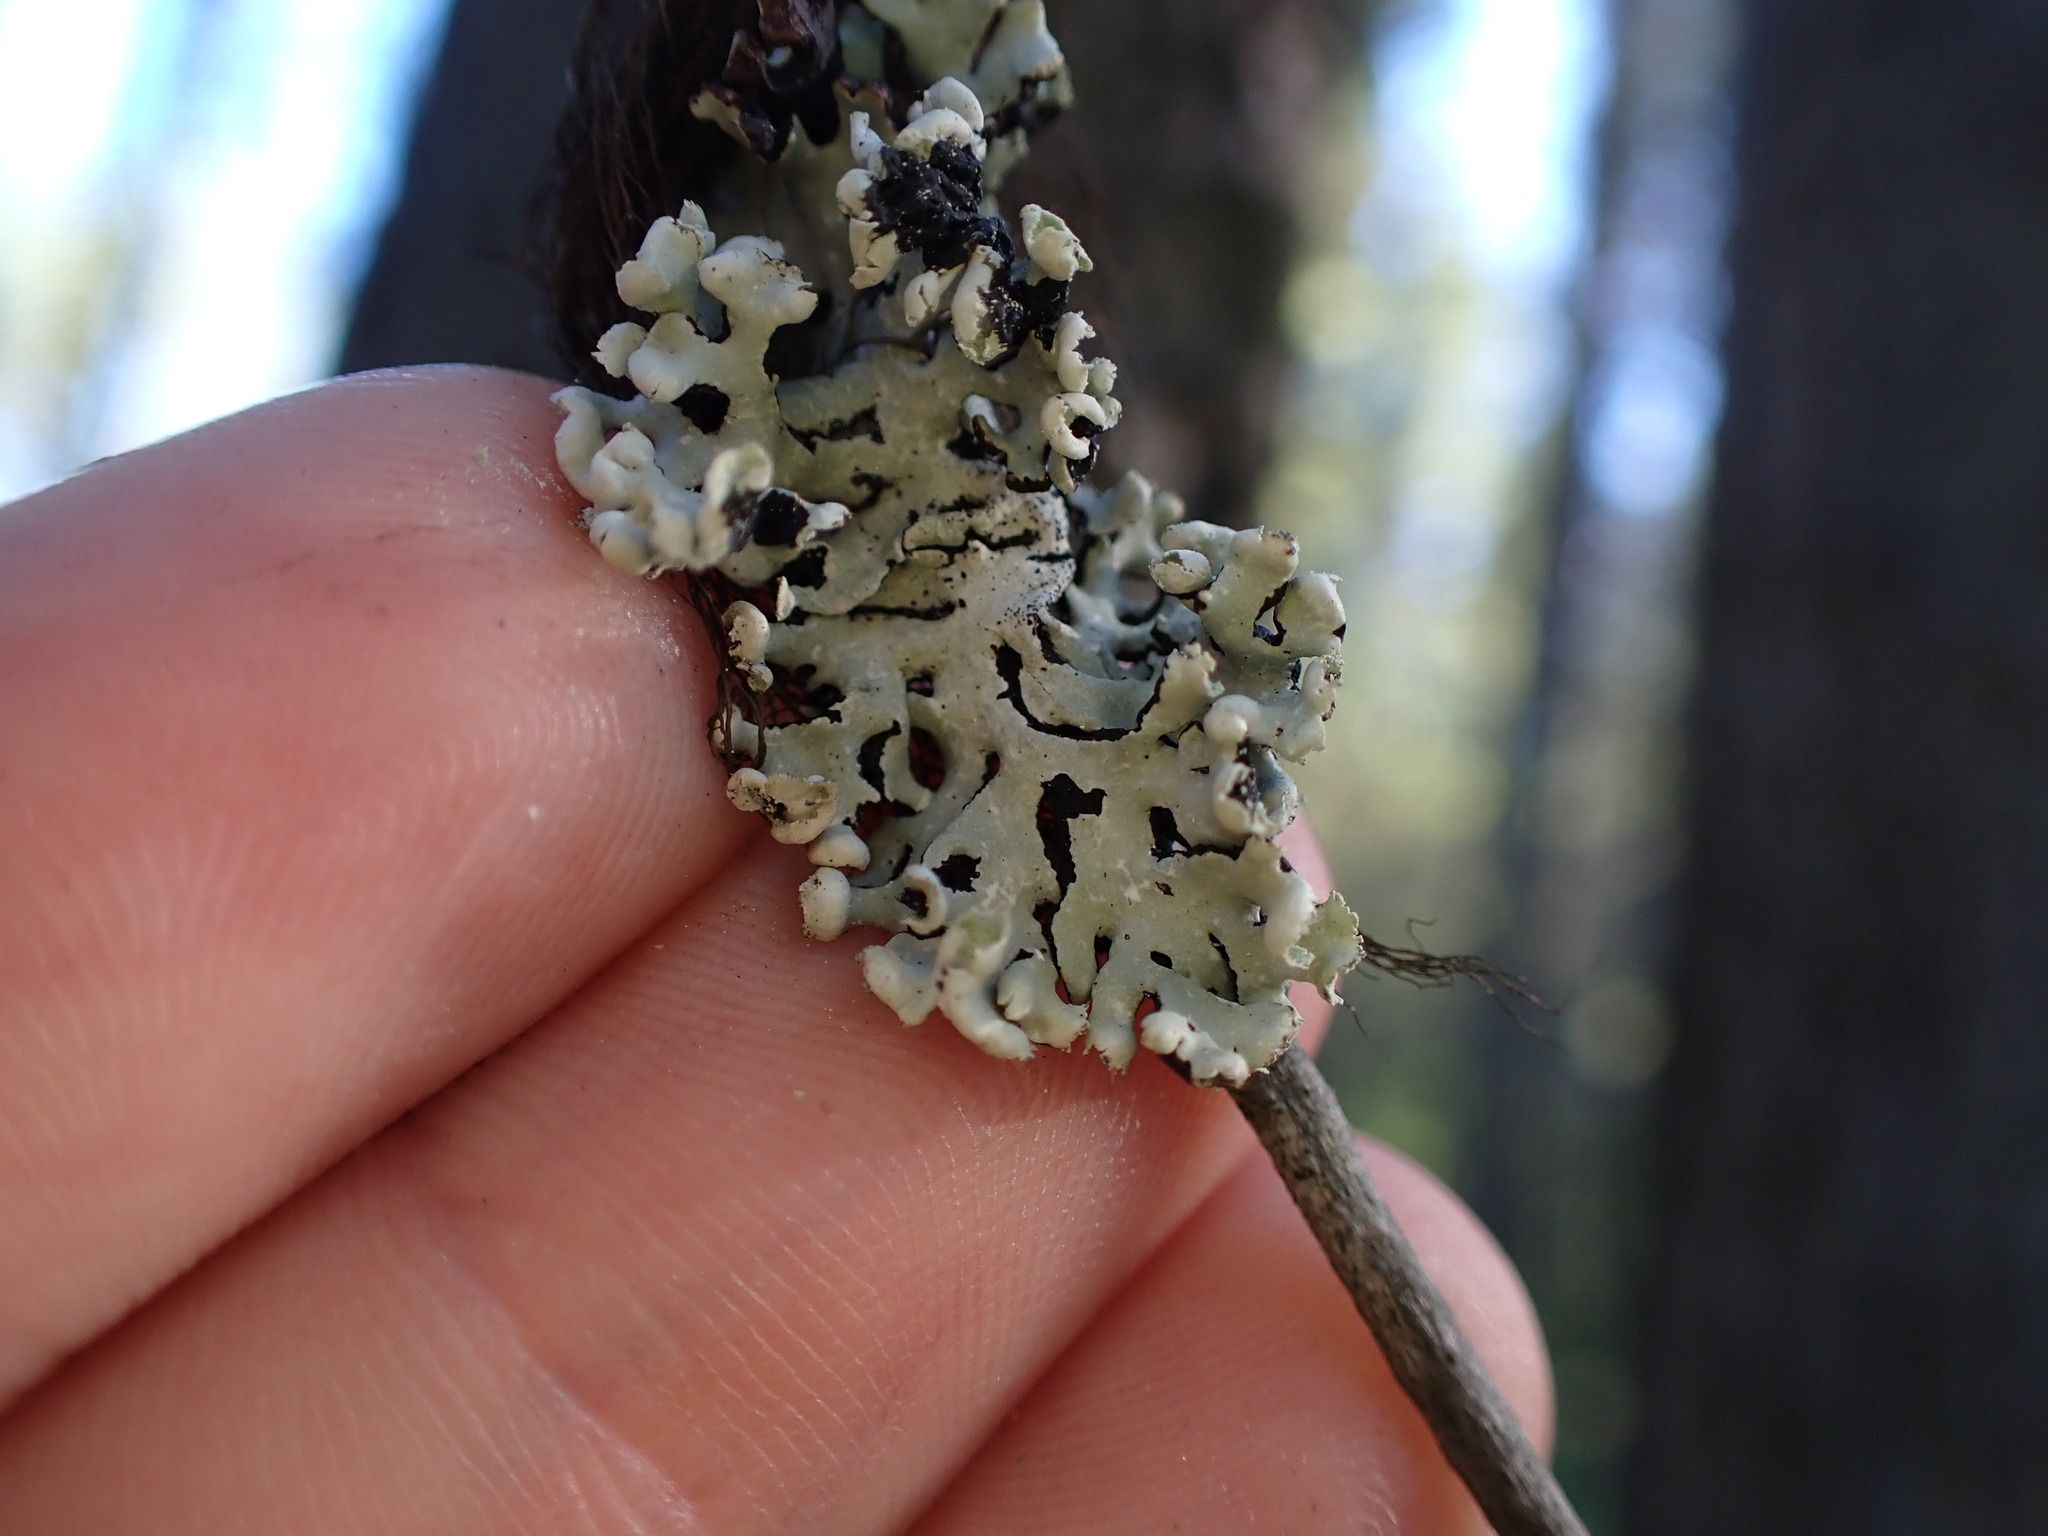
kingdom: Fungi
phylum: Ascomycota
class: Lecanoromycetes
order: Lecanorales
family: Parmeliaceae
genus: Hypogymnia
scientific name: Hypogymnia physodes
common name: Dark crottle
